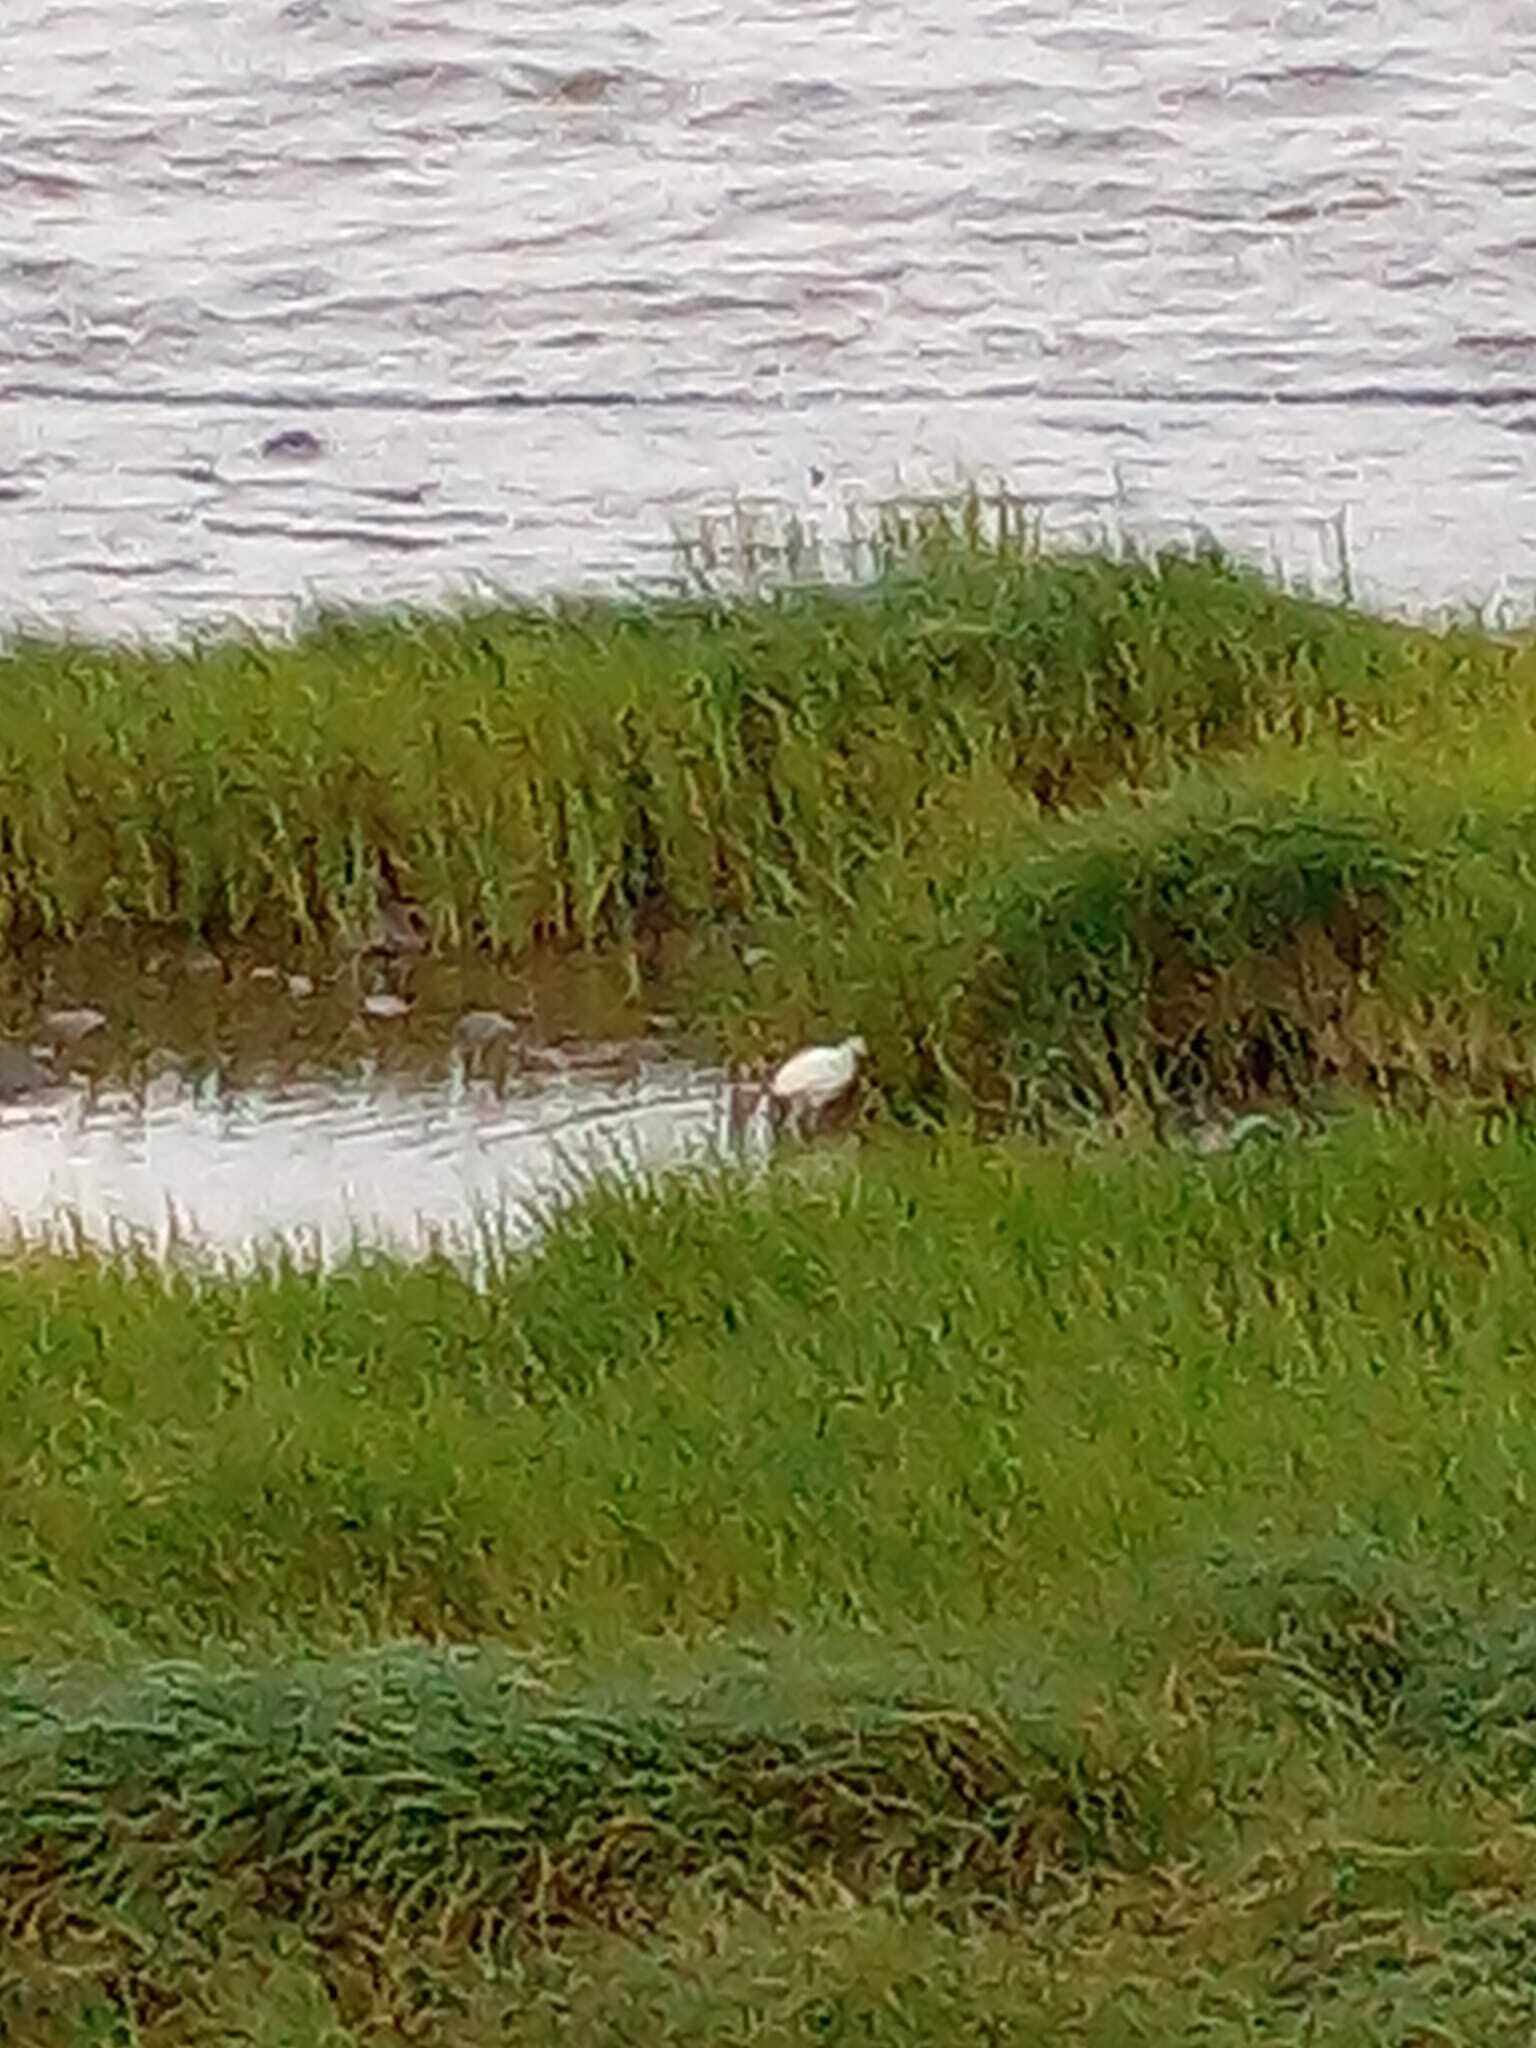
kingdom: Animalia
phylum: Chordata
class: Aves
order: Pelecaniformes
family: Ardeidae
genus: Egretta
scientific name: Egretta thula
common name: Snowy egret
